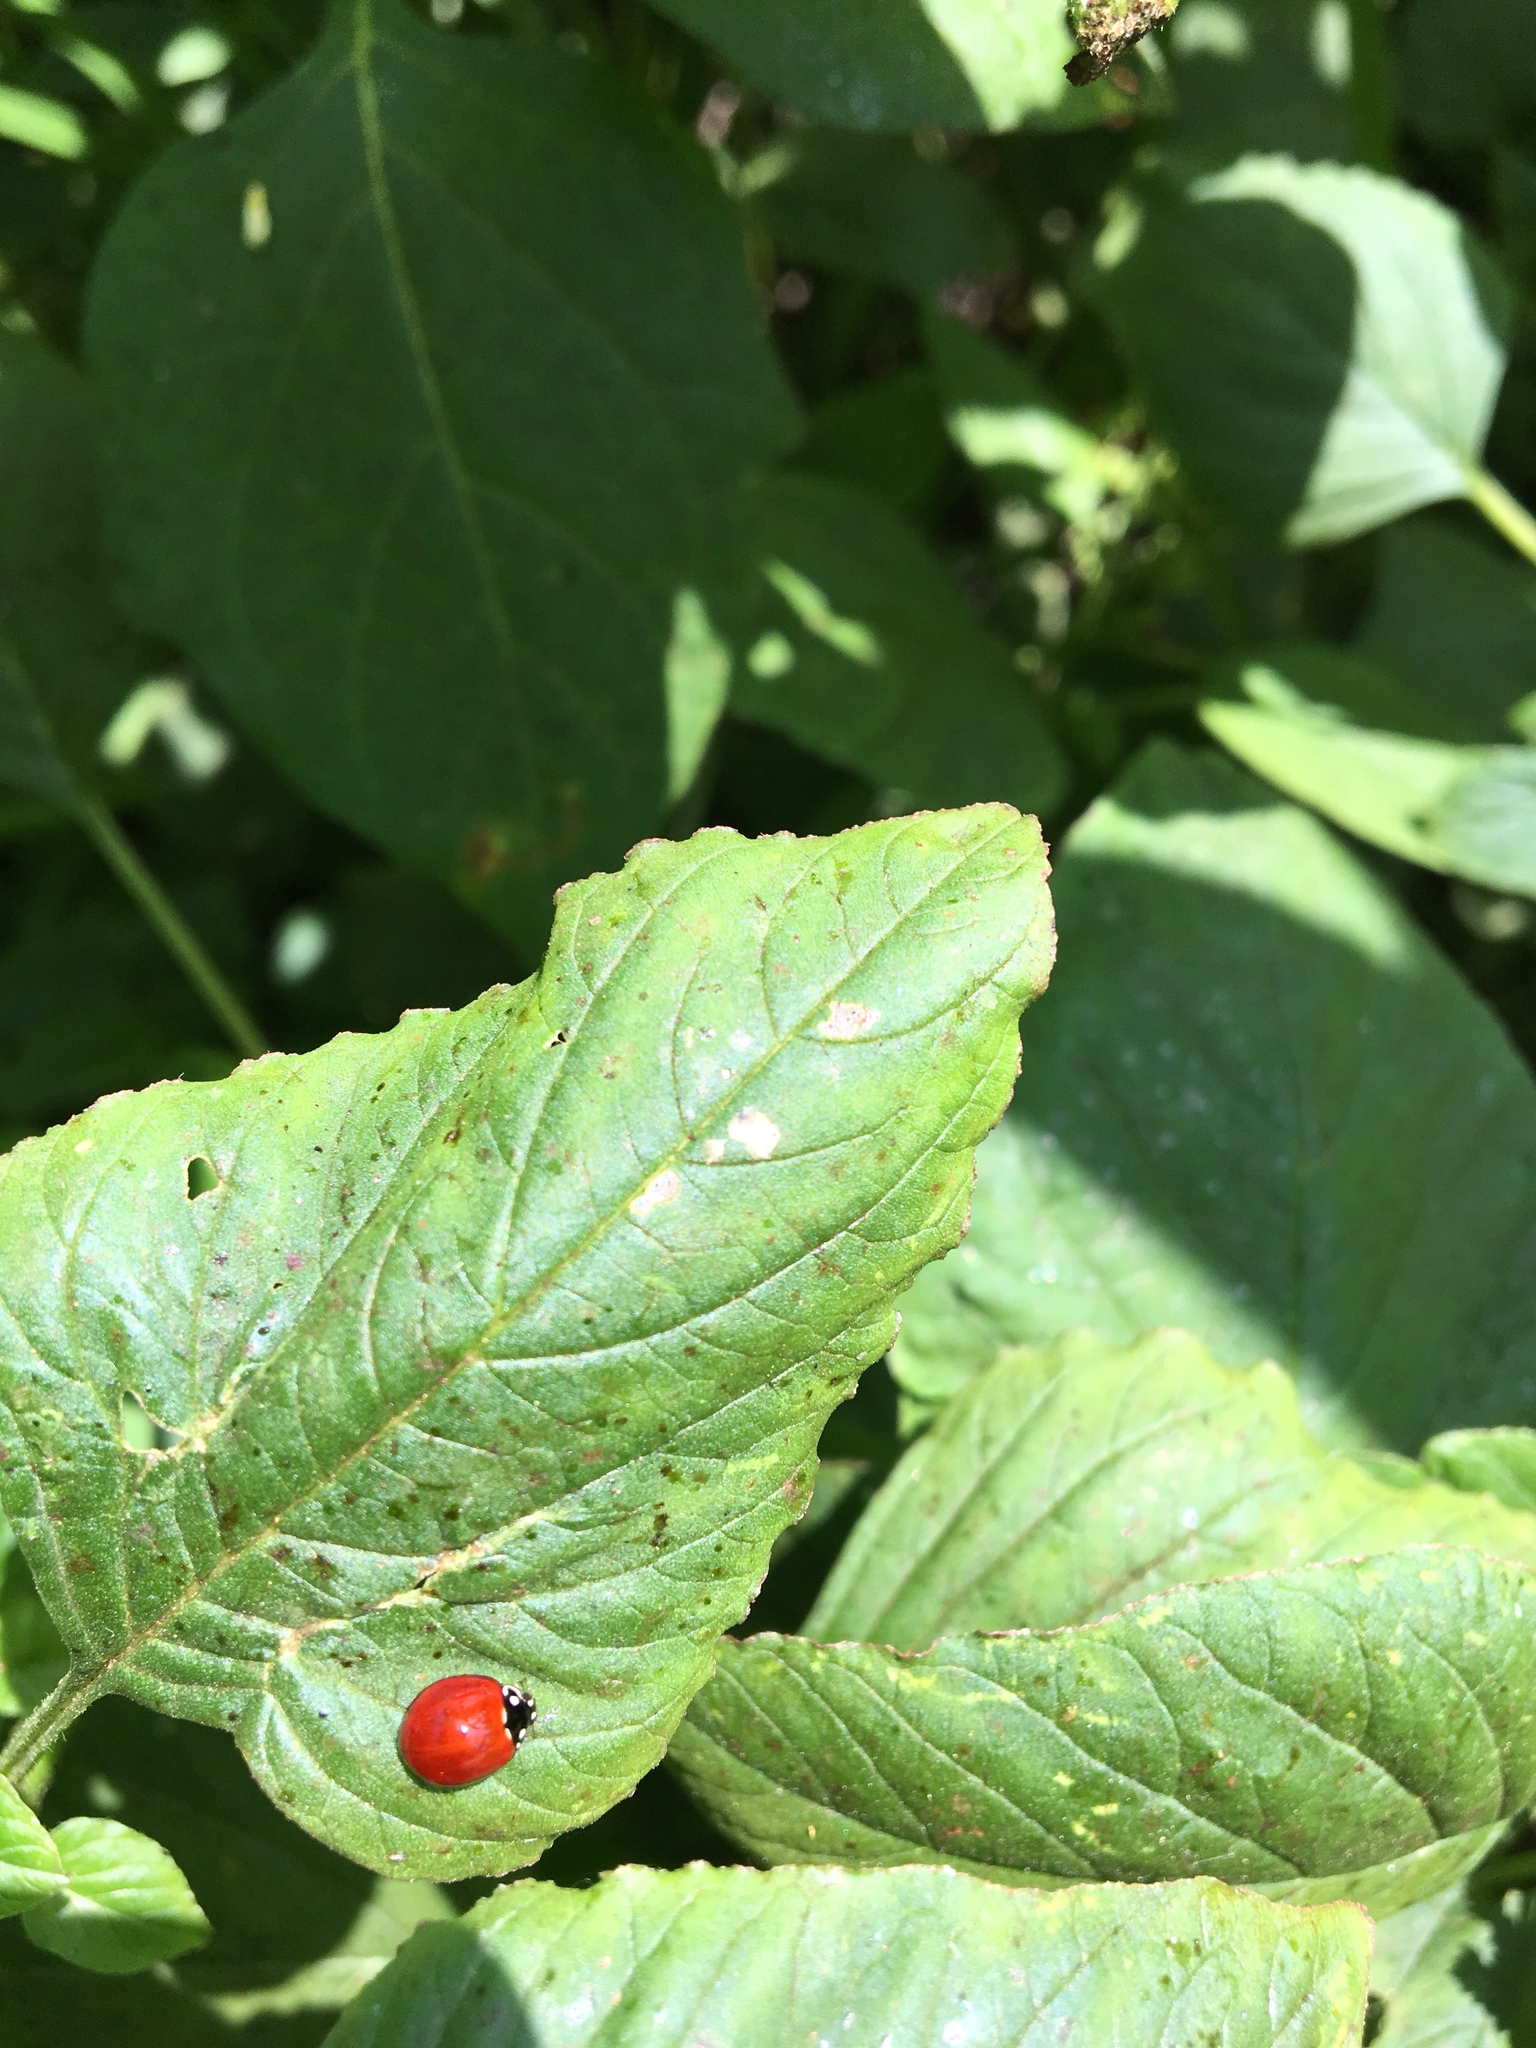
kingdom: Animalia
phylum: Arthropoda
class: Insecta
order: Coleoptera
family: Coccinellidae
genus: Cycloneda
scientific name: Cycloneda sanguinea
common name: Ladybird beetle
